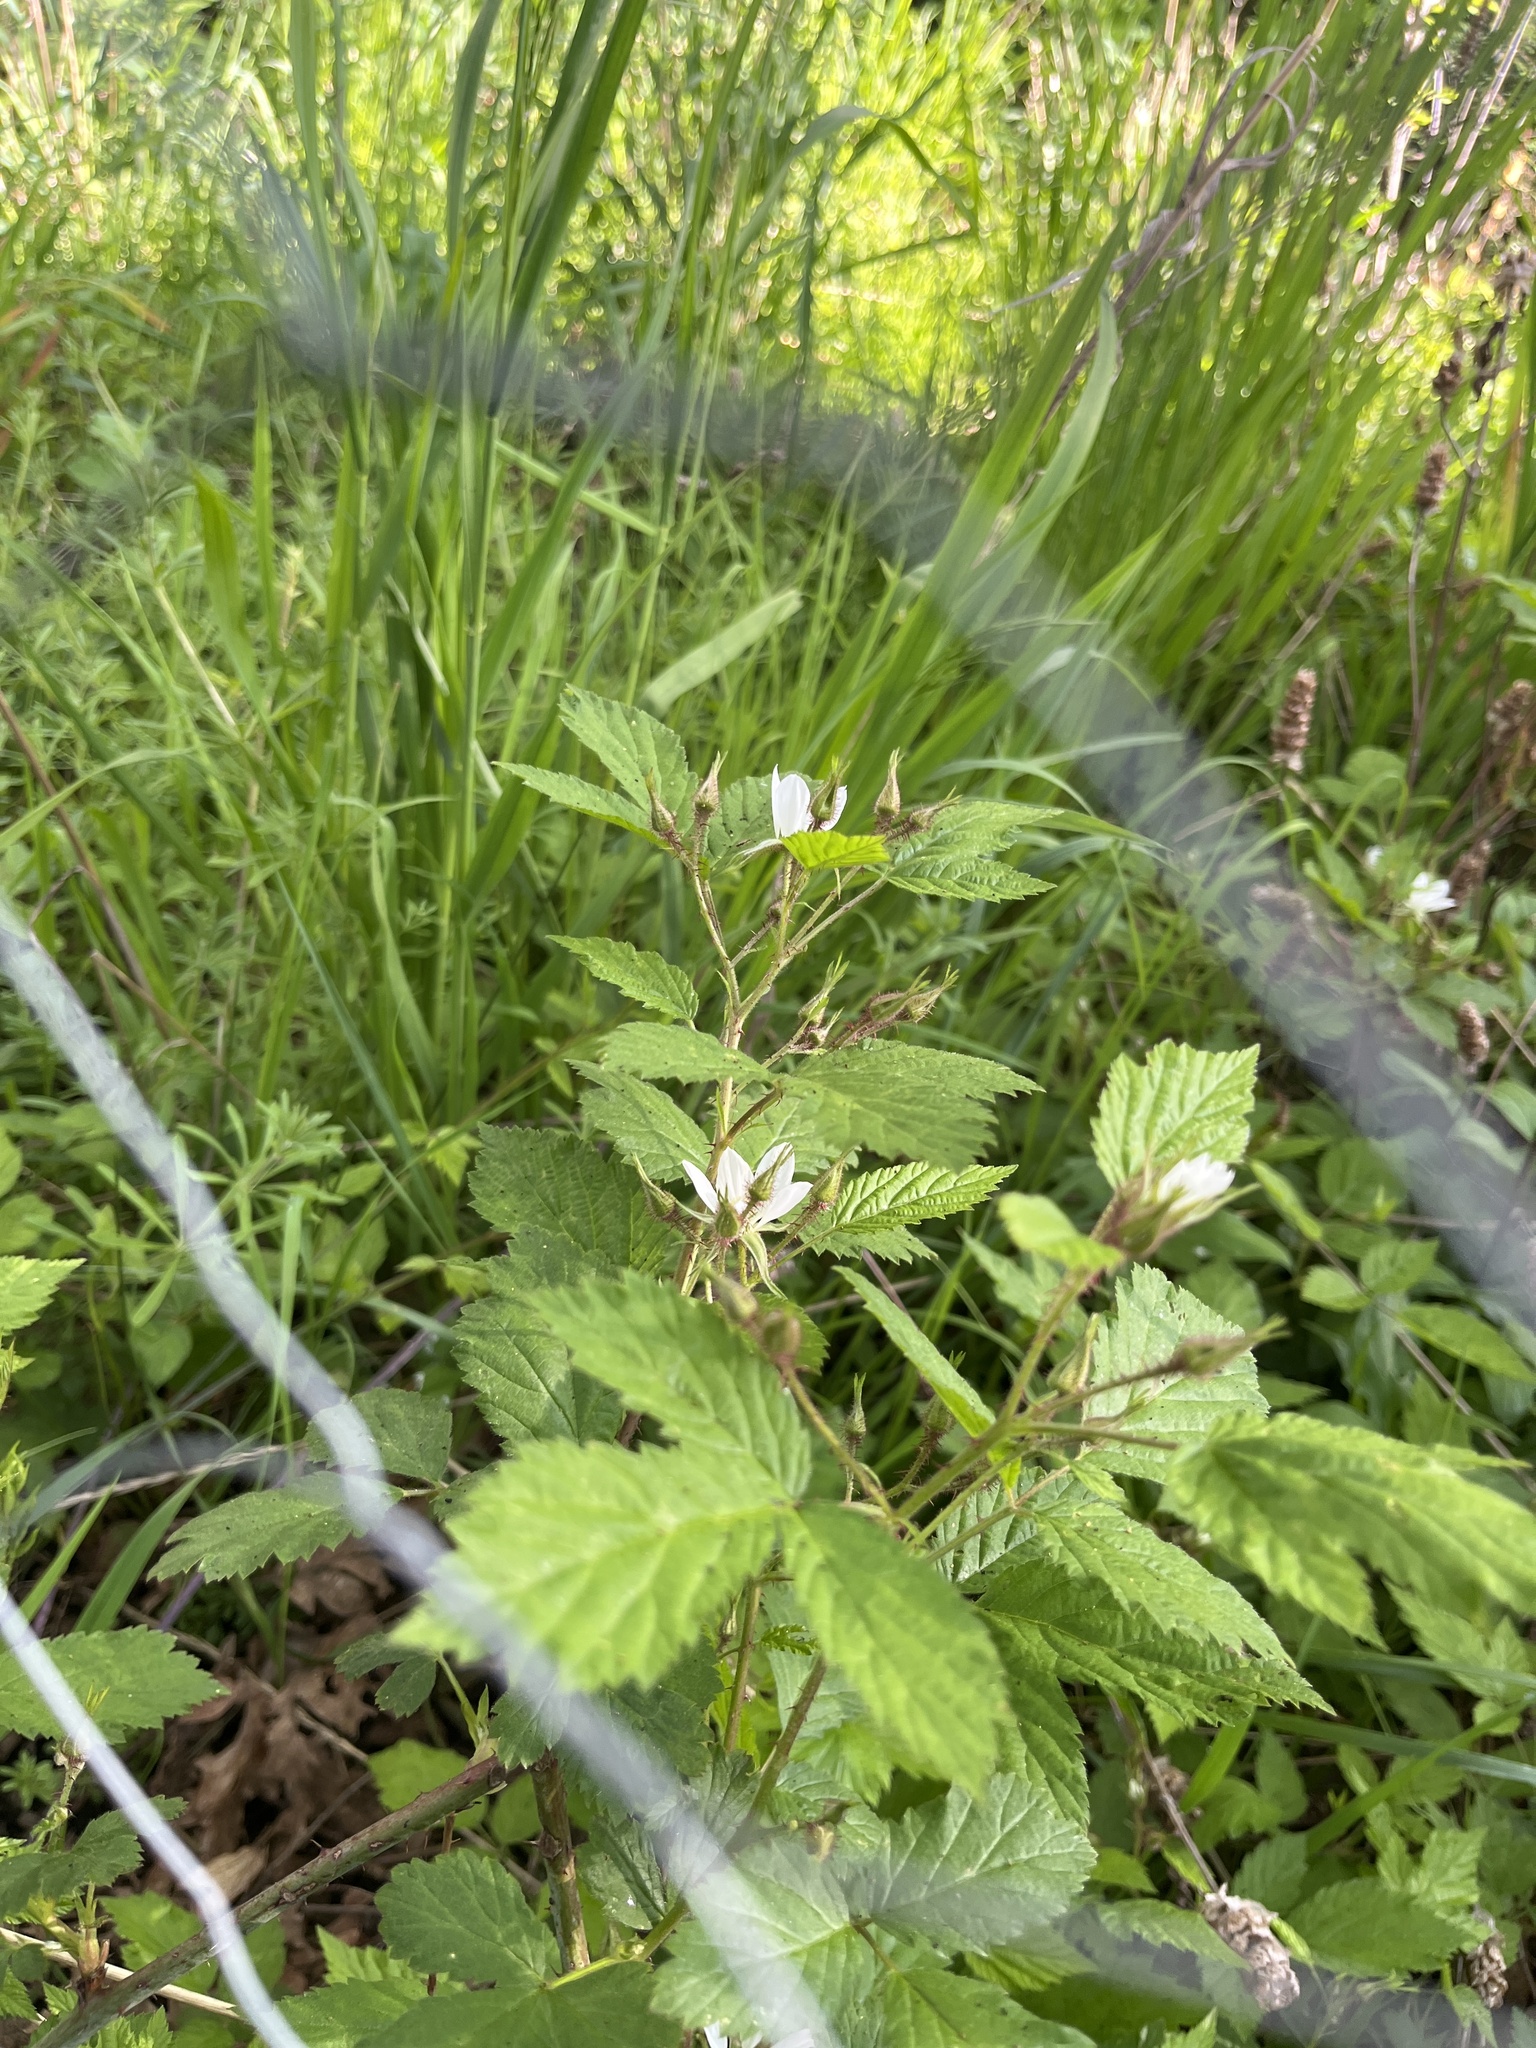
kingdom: Plantae
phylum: Tracheophyta
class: Magnoliopsida
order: Rosales
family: Rosaceae
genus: Rubus
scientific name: Rubus ursinus
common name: Pacific blackberry
